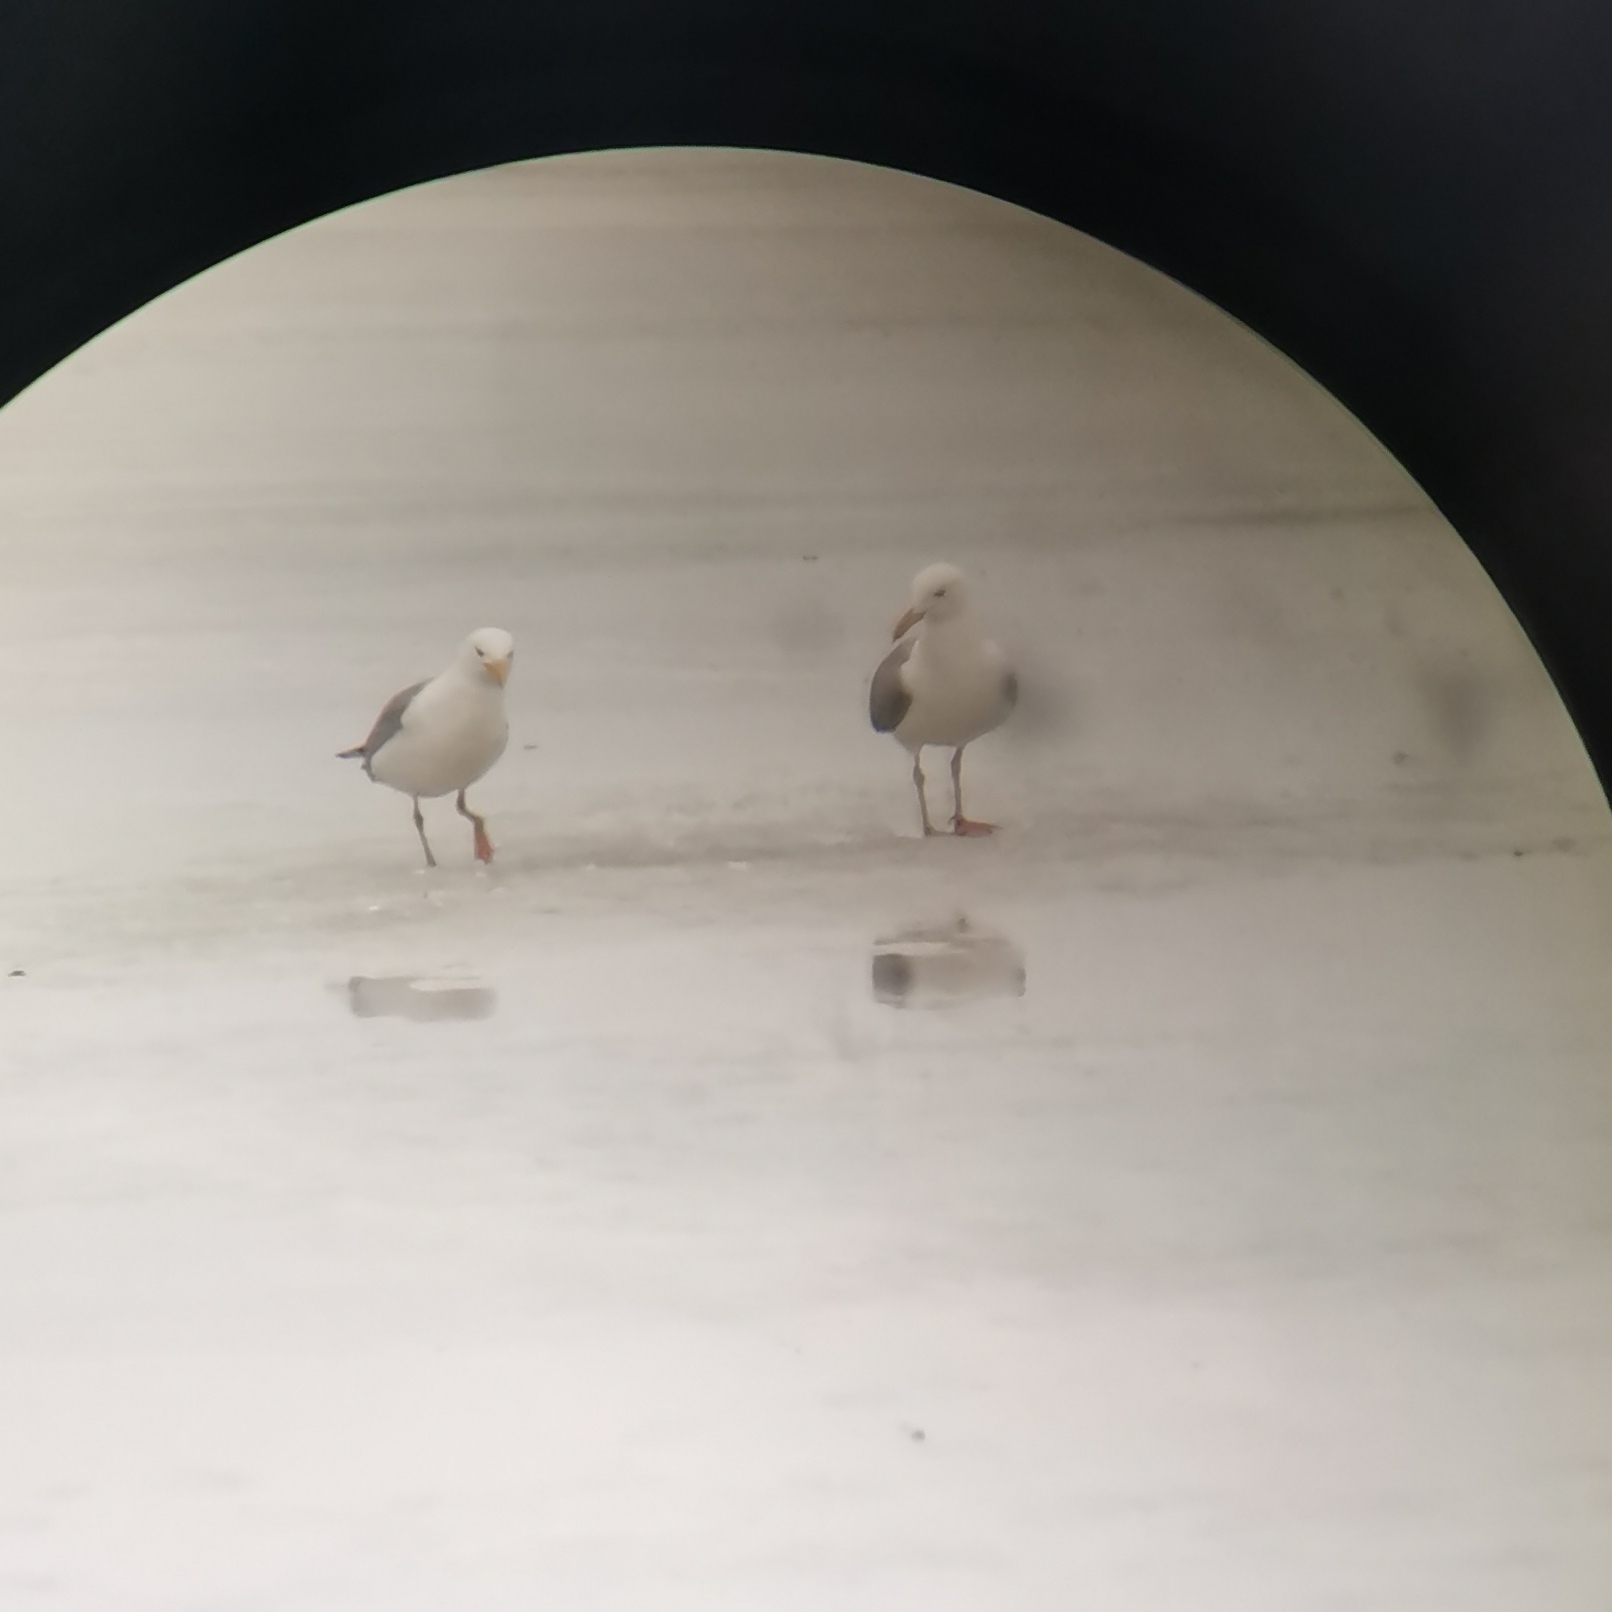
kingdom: Animalia
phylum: Chordata
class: Aves
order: Charadriiformes
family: Laridae
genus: Larus
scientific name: Larus argentatus
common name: Herring gull
